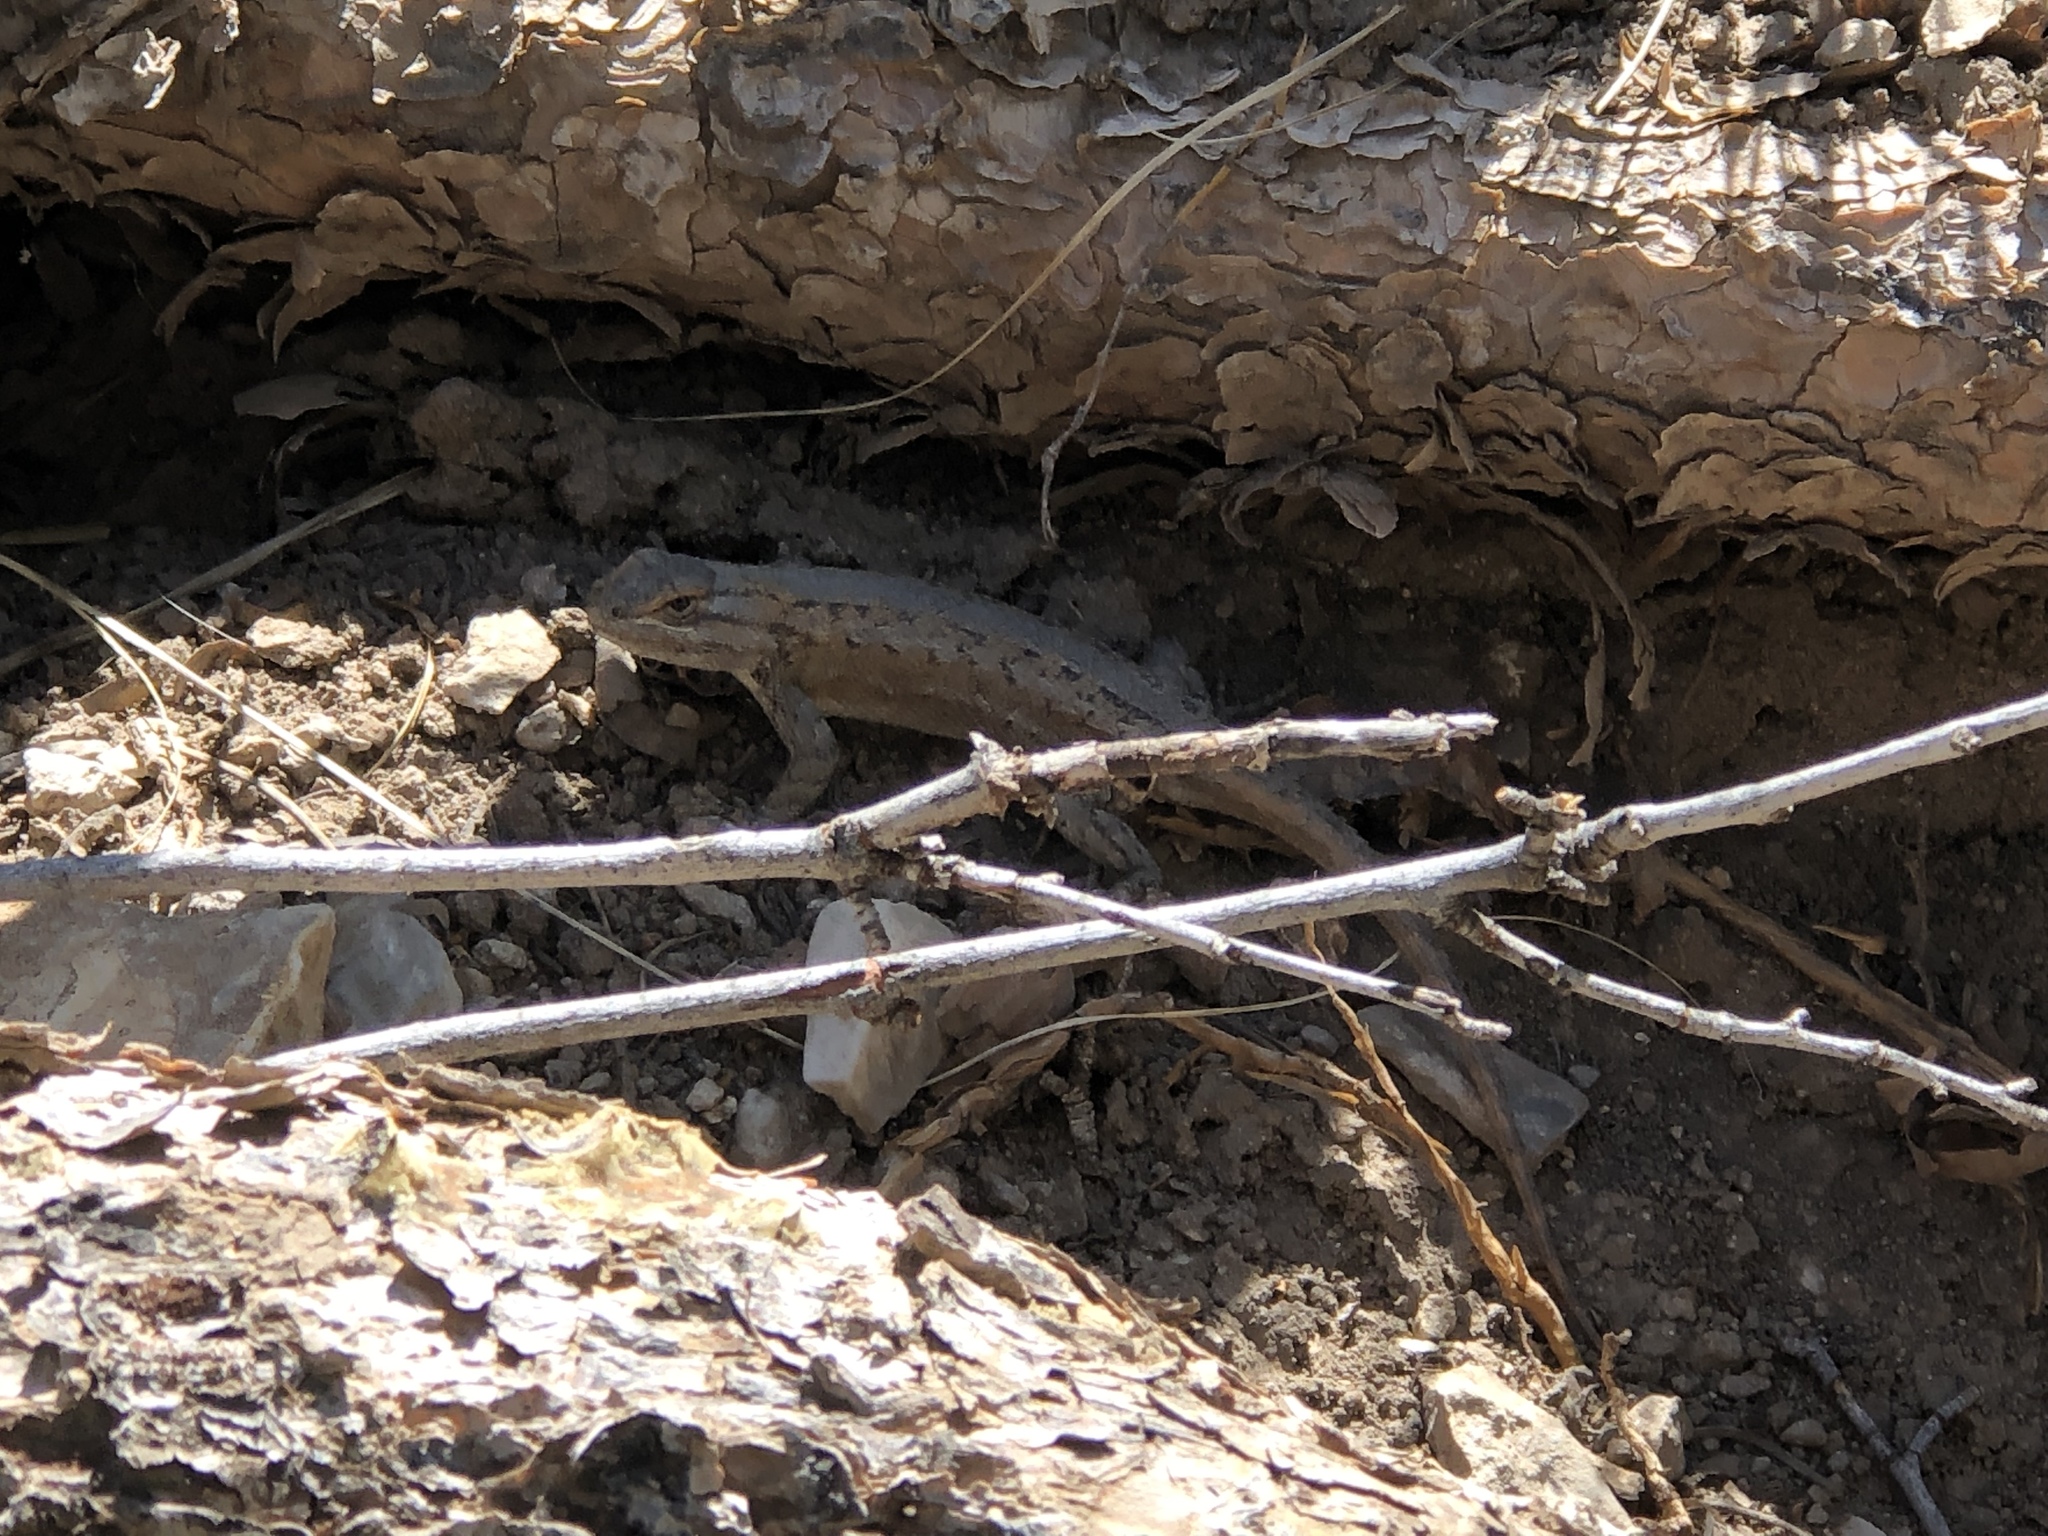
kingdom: Animalia
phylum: Chordata
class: Squamata
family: Phrynosomatidae
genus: Sceloporus
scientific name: Sceloporus cowlesi
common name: White sands prairie lizard
